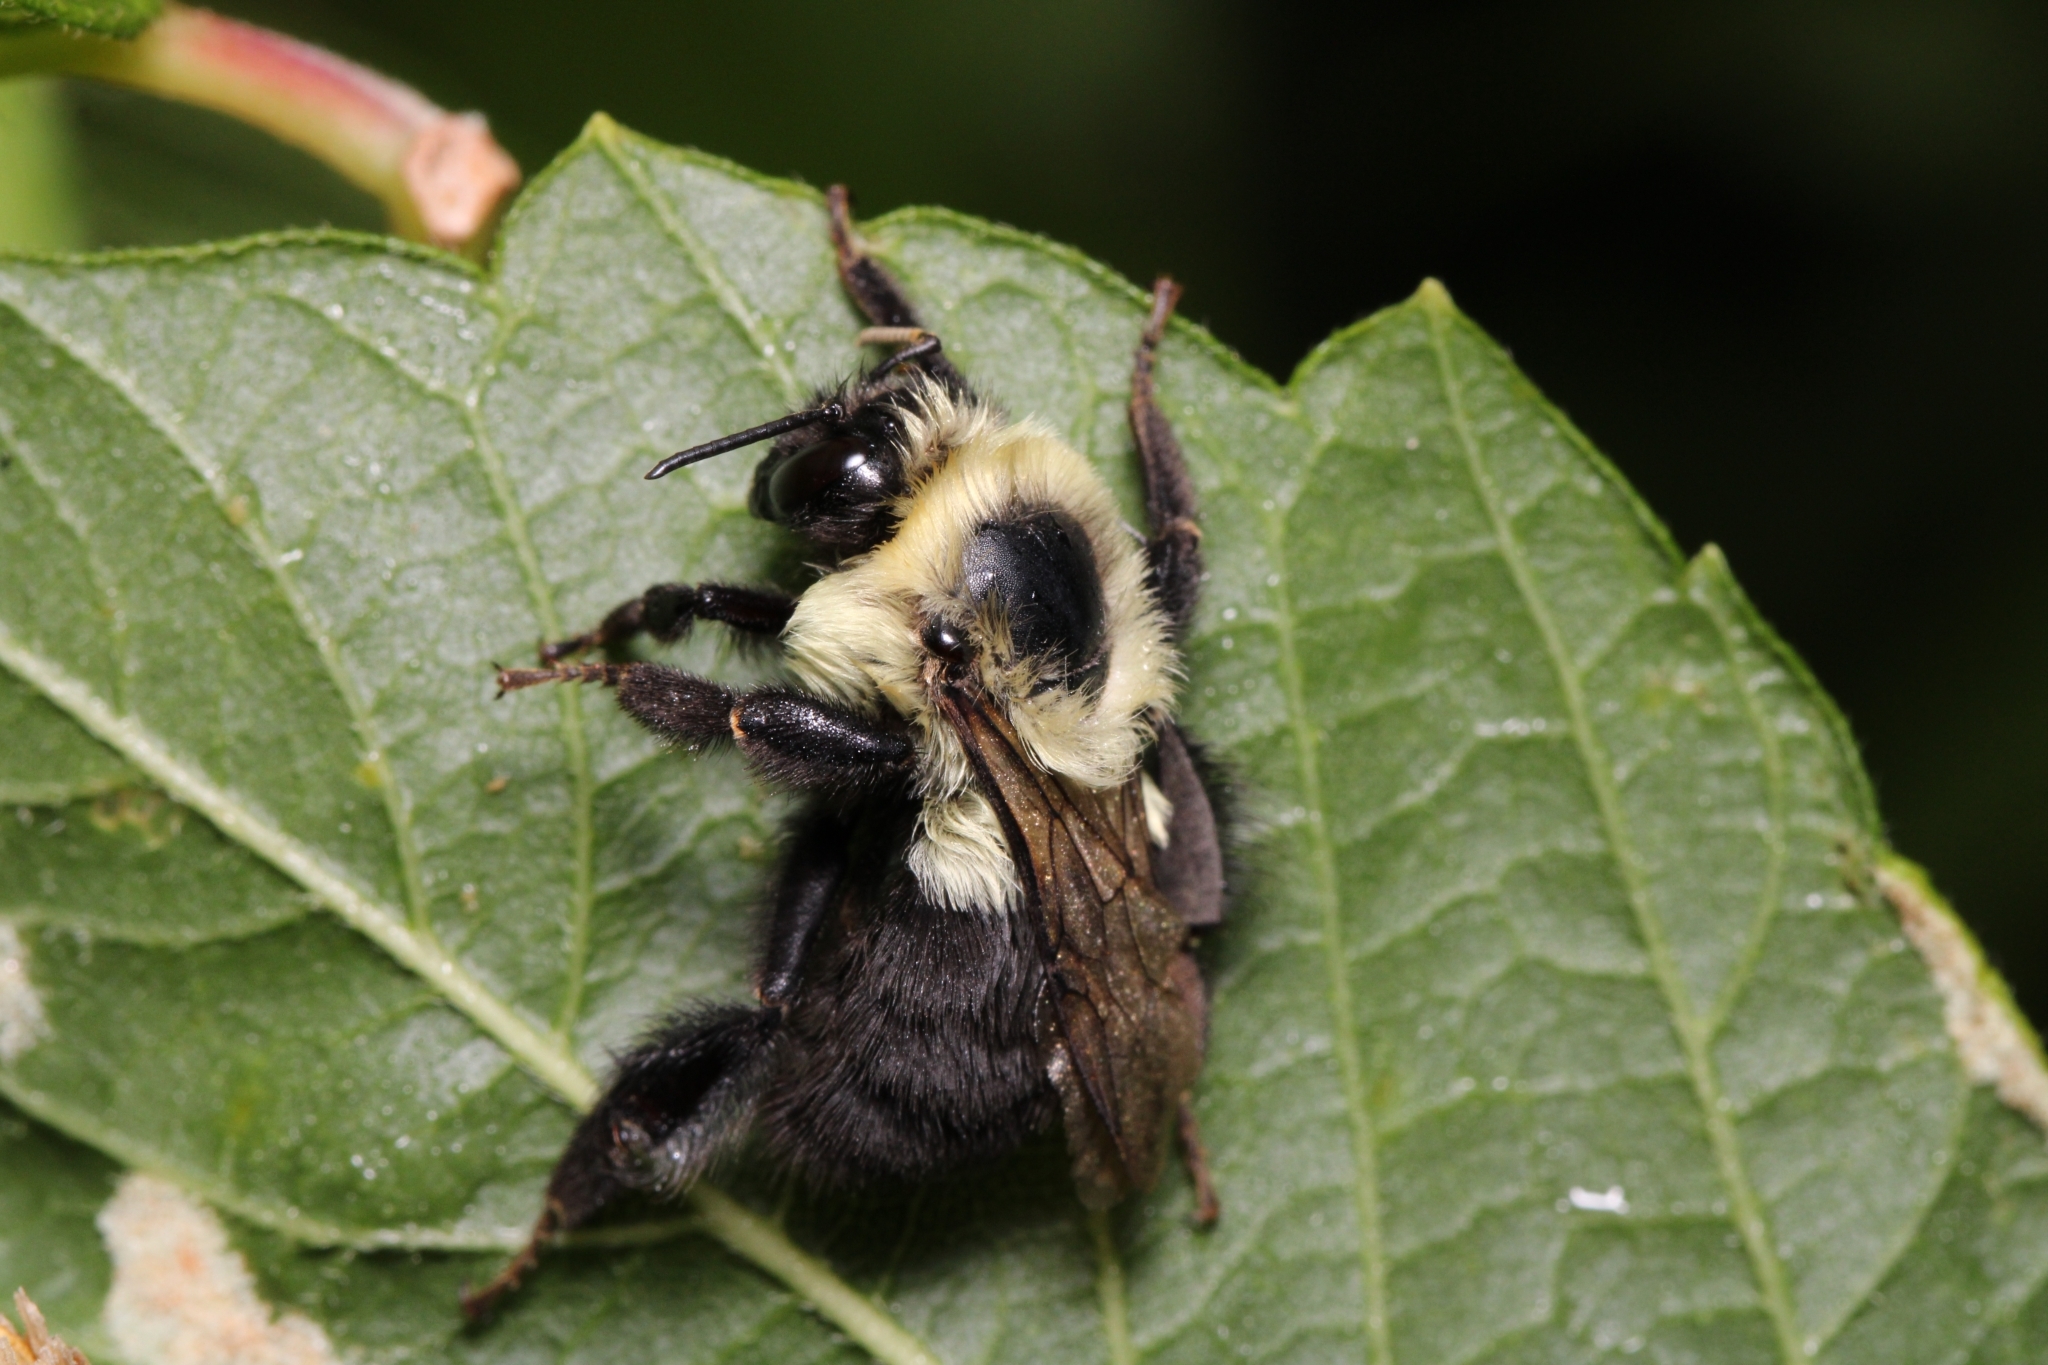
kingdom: Animalia
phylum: Arthropoda
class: Insecta
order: Hymenoptera
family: Apidae
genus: Bombus
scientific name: Bombus impatiens
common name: Common eastern bumble bee
